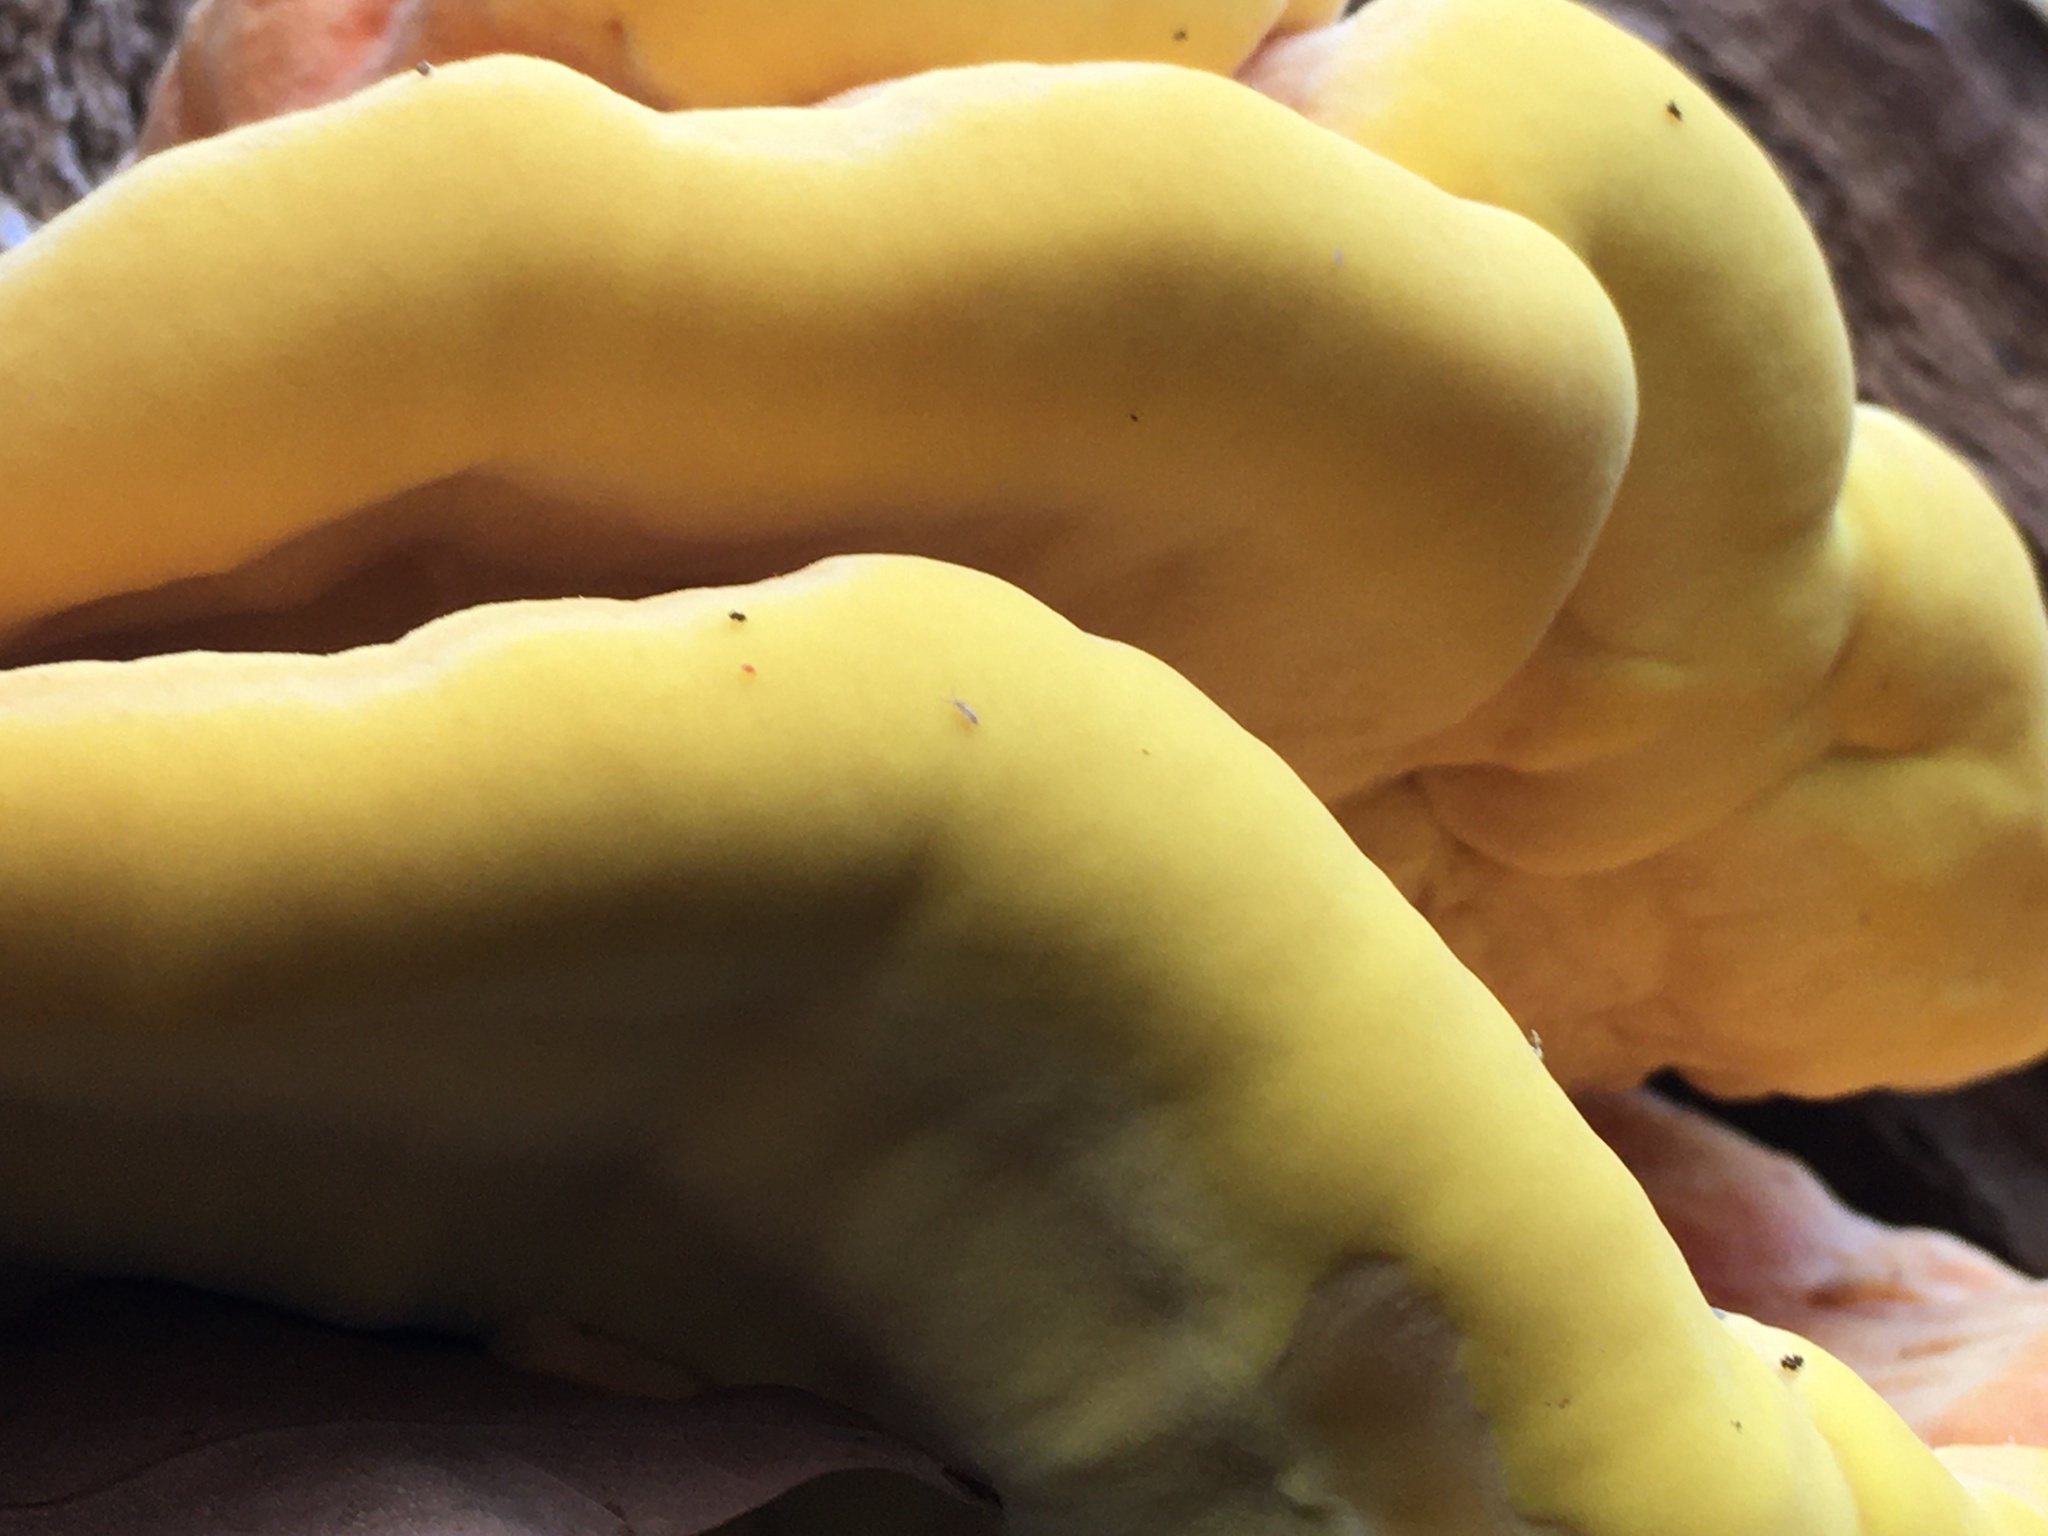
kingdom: Fungi
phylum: Basidiomycota
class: Agaricomycetes
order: Polyporales
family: Laetiporaceae
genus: Laetiporus
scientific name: Laetiporus gilbertsonii
